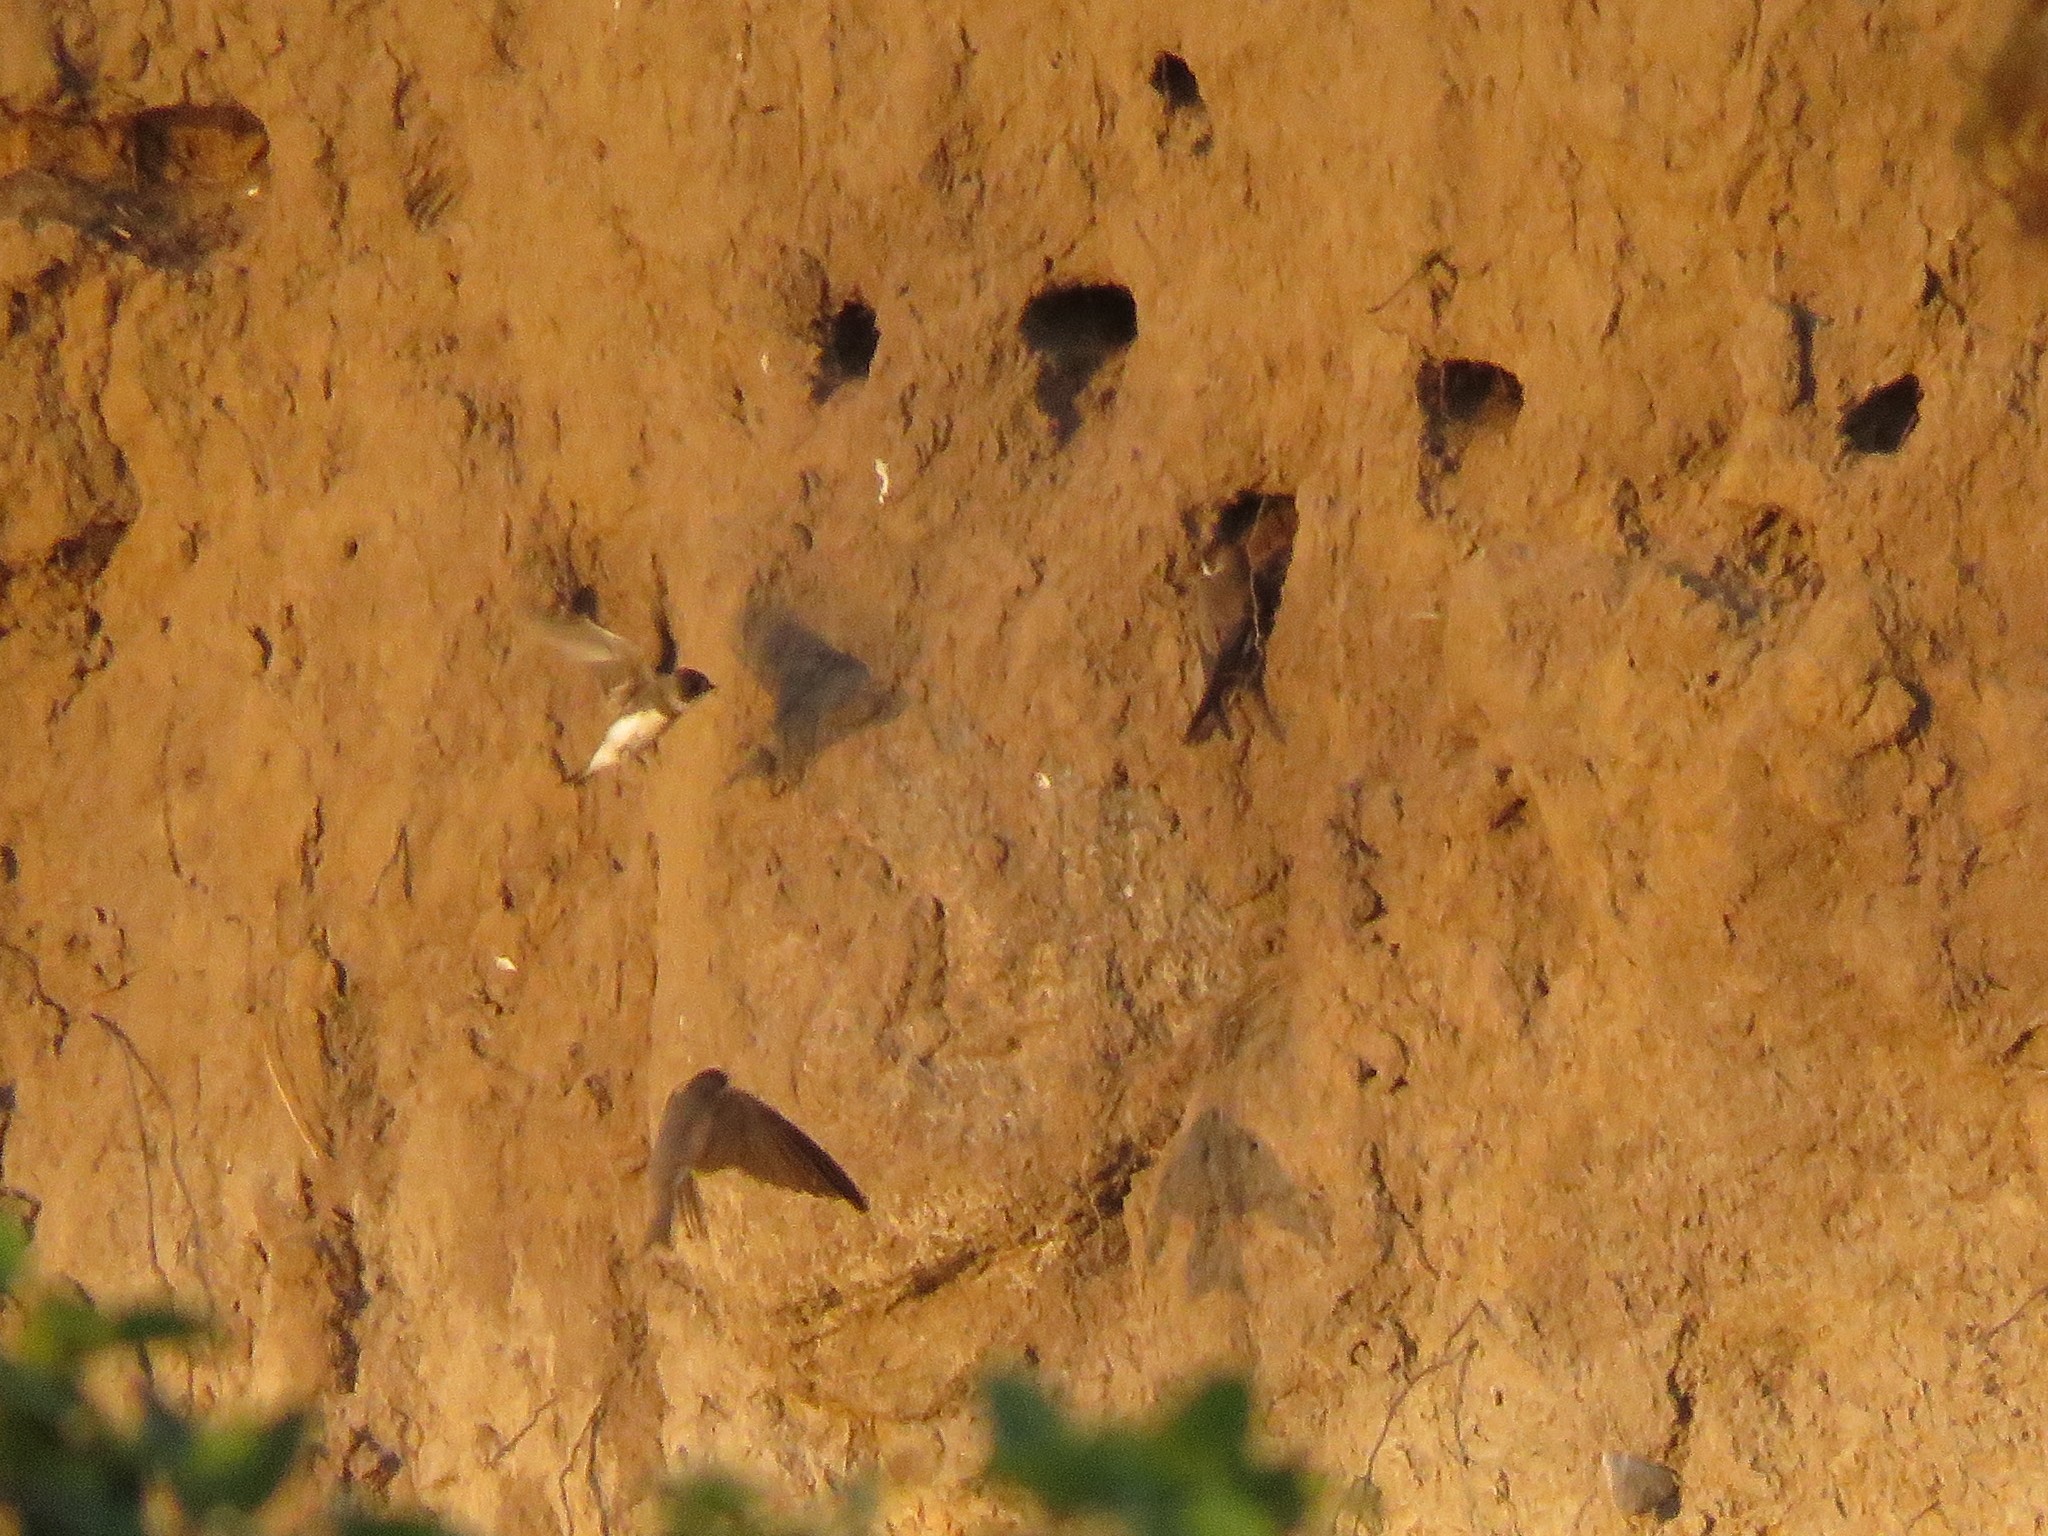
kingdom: Animalia
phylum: Chordata
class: Aves
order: Passeriformes
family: Hirundinidae
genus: Riparia
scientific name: Riparia riparia
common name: Sand martin
